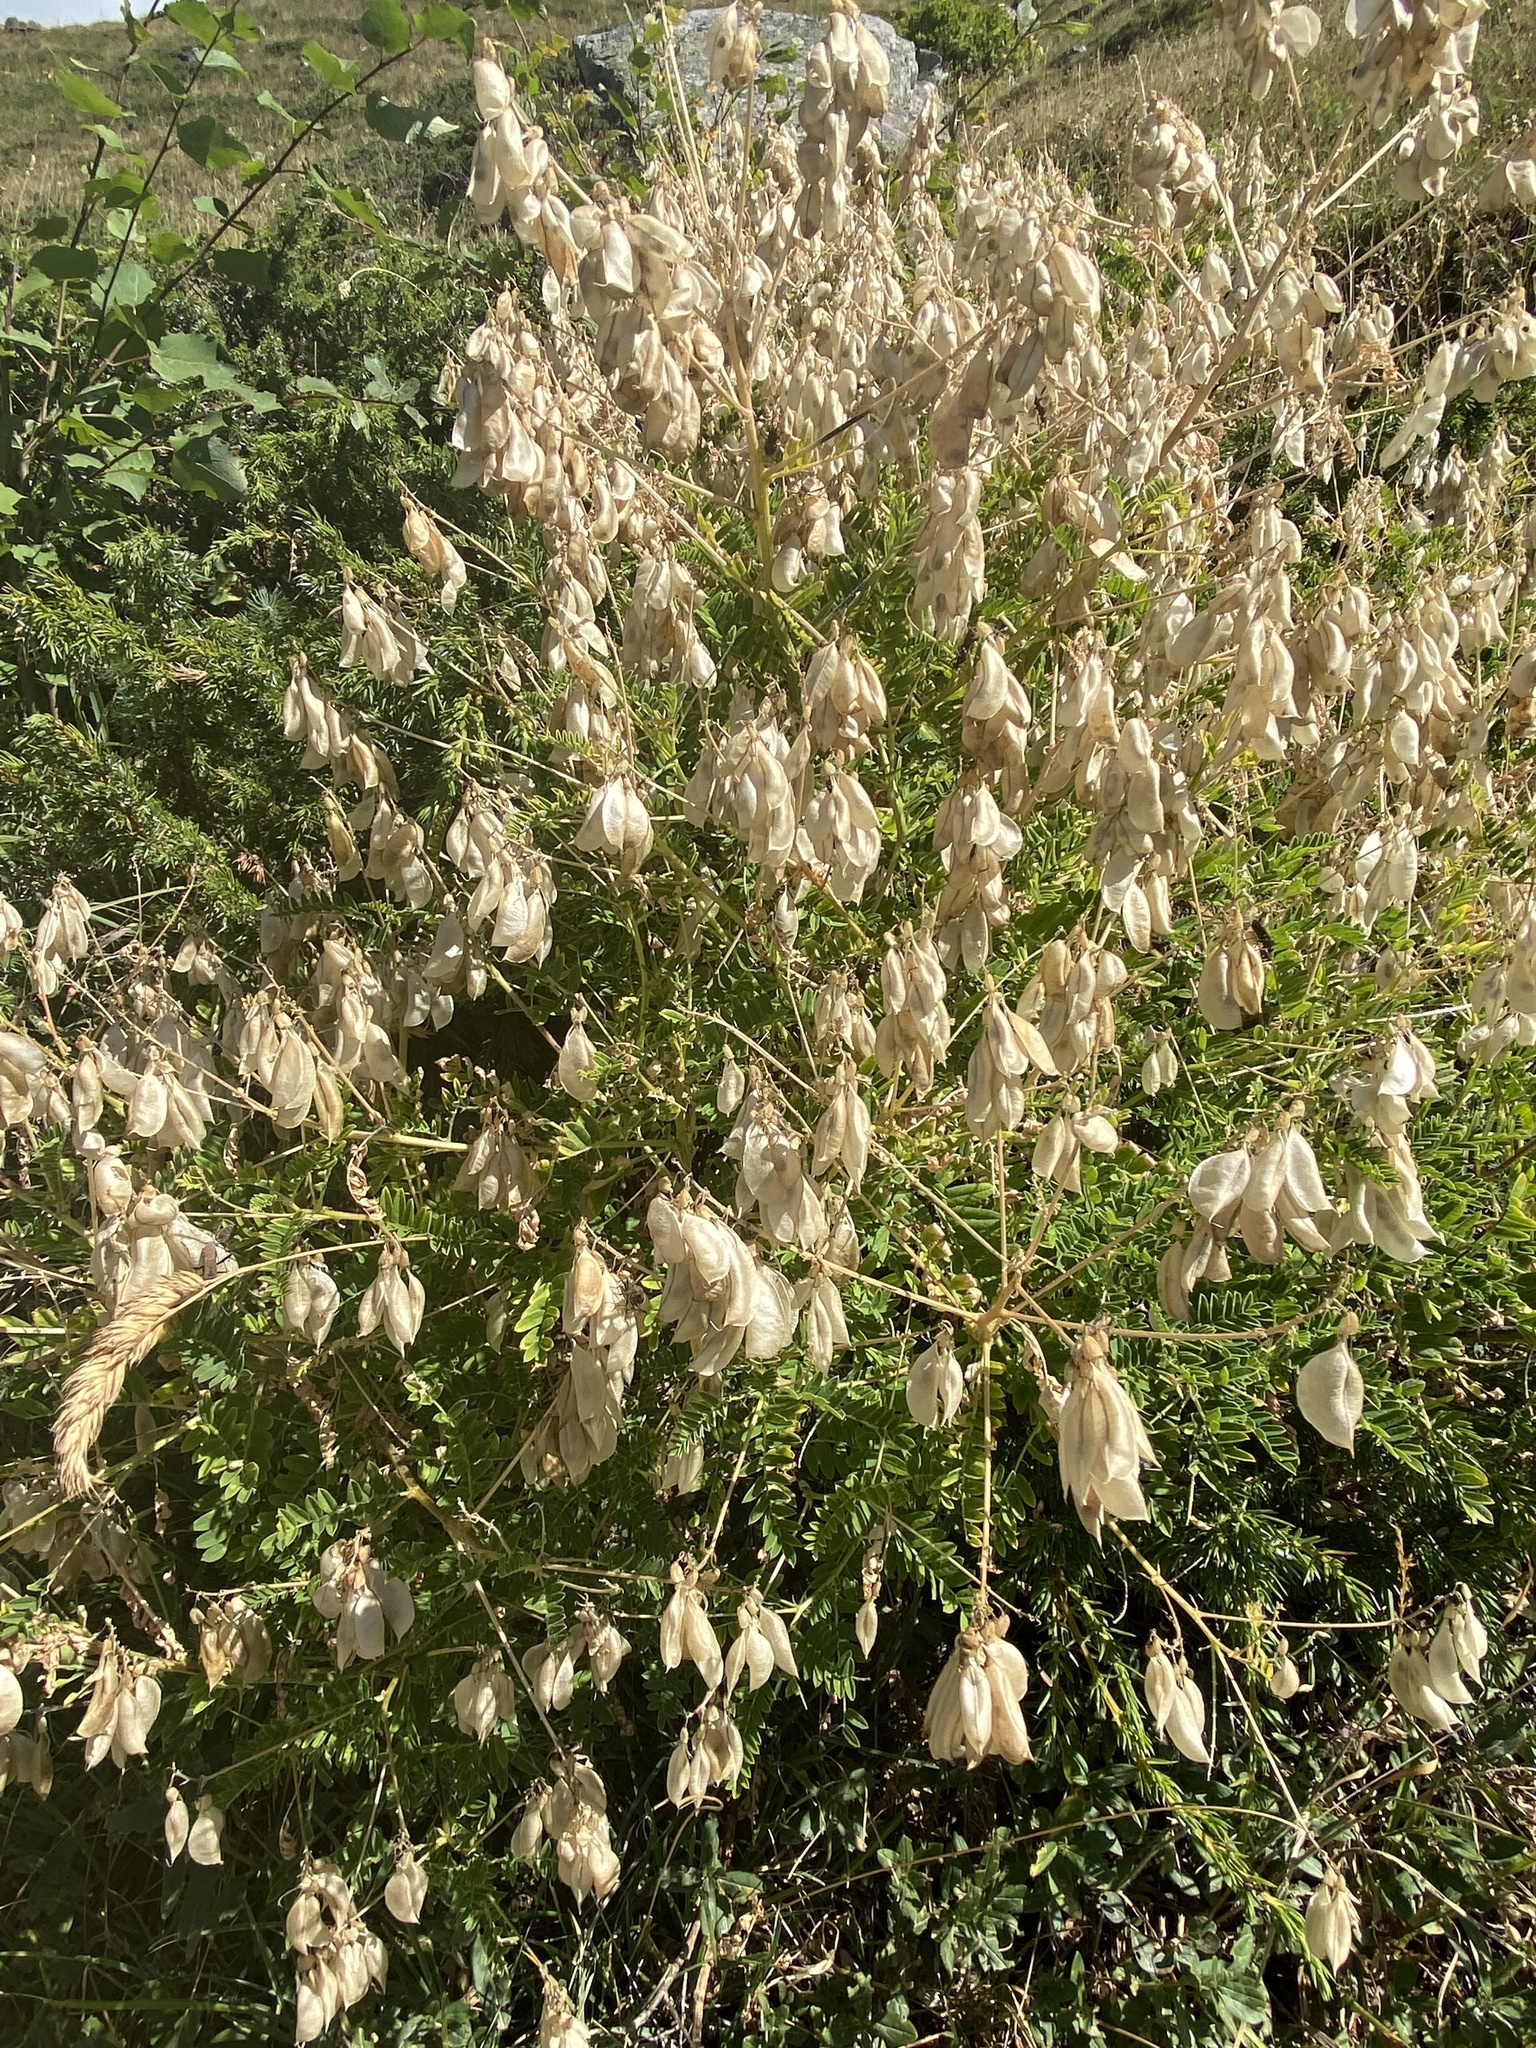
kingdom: Plantae
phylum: Tracheophyta
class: Magnoliopsida
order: Fabales
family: Fabaceae
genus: Colutea
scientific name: Colutea arborescens
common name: Bladder-senna
